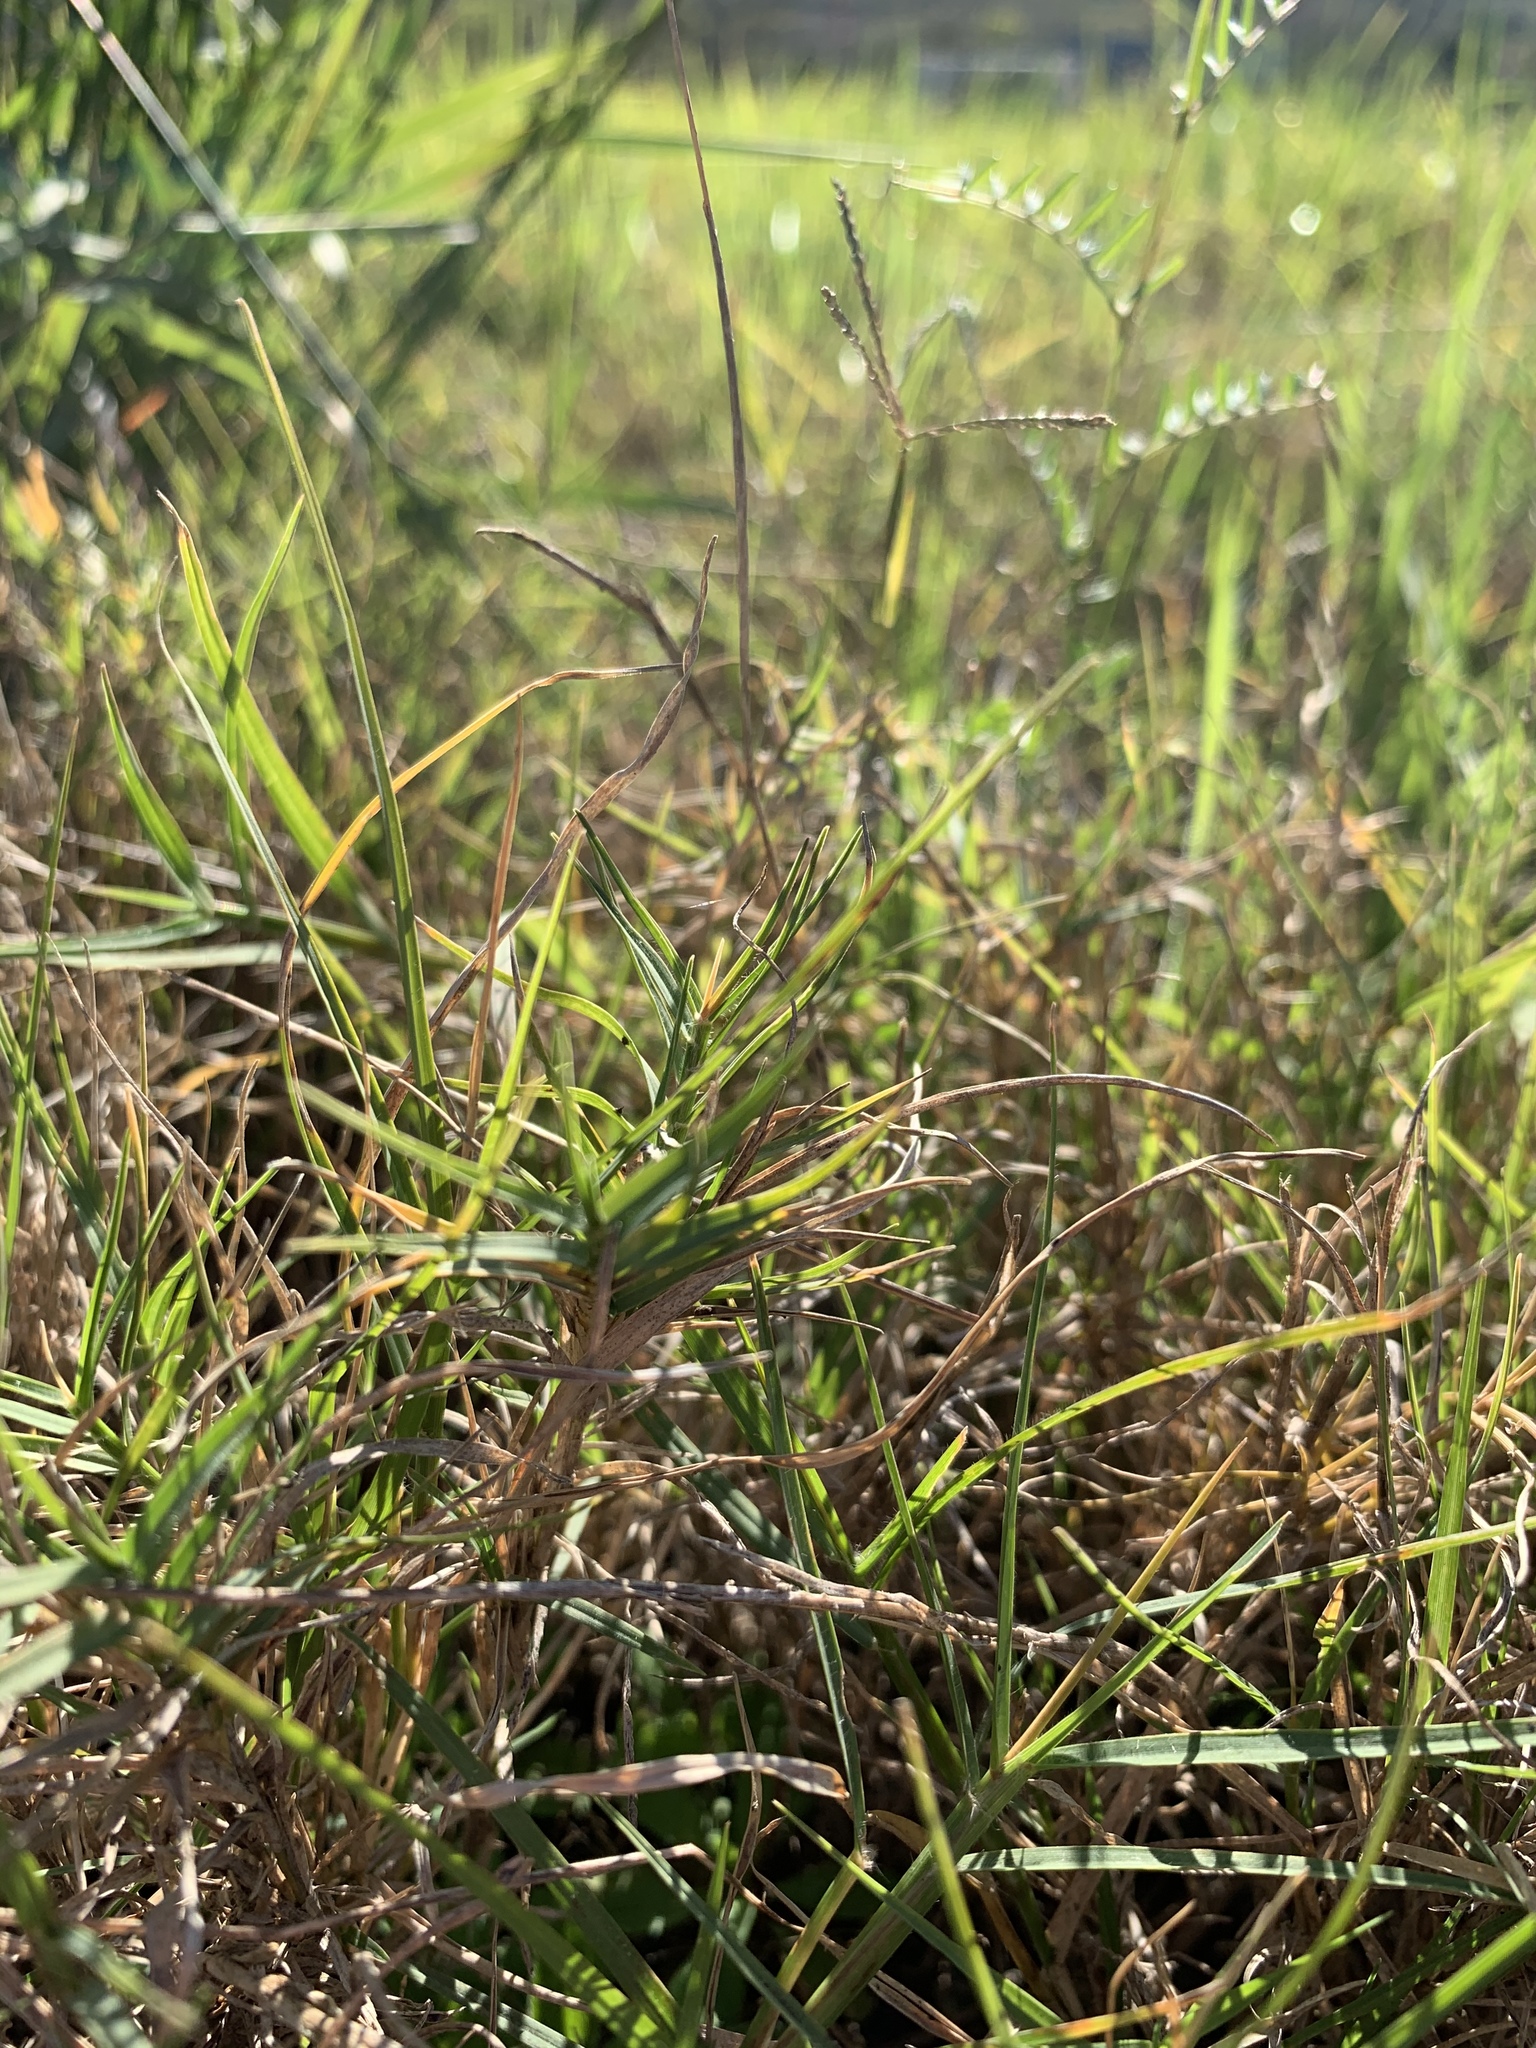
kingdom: Plantae
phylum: Tracheophyta
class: Liliopsida
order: Poales
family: Poaceae
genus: Cynodon
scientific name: Cynodon dactylon
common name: Bermuda grass
